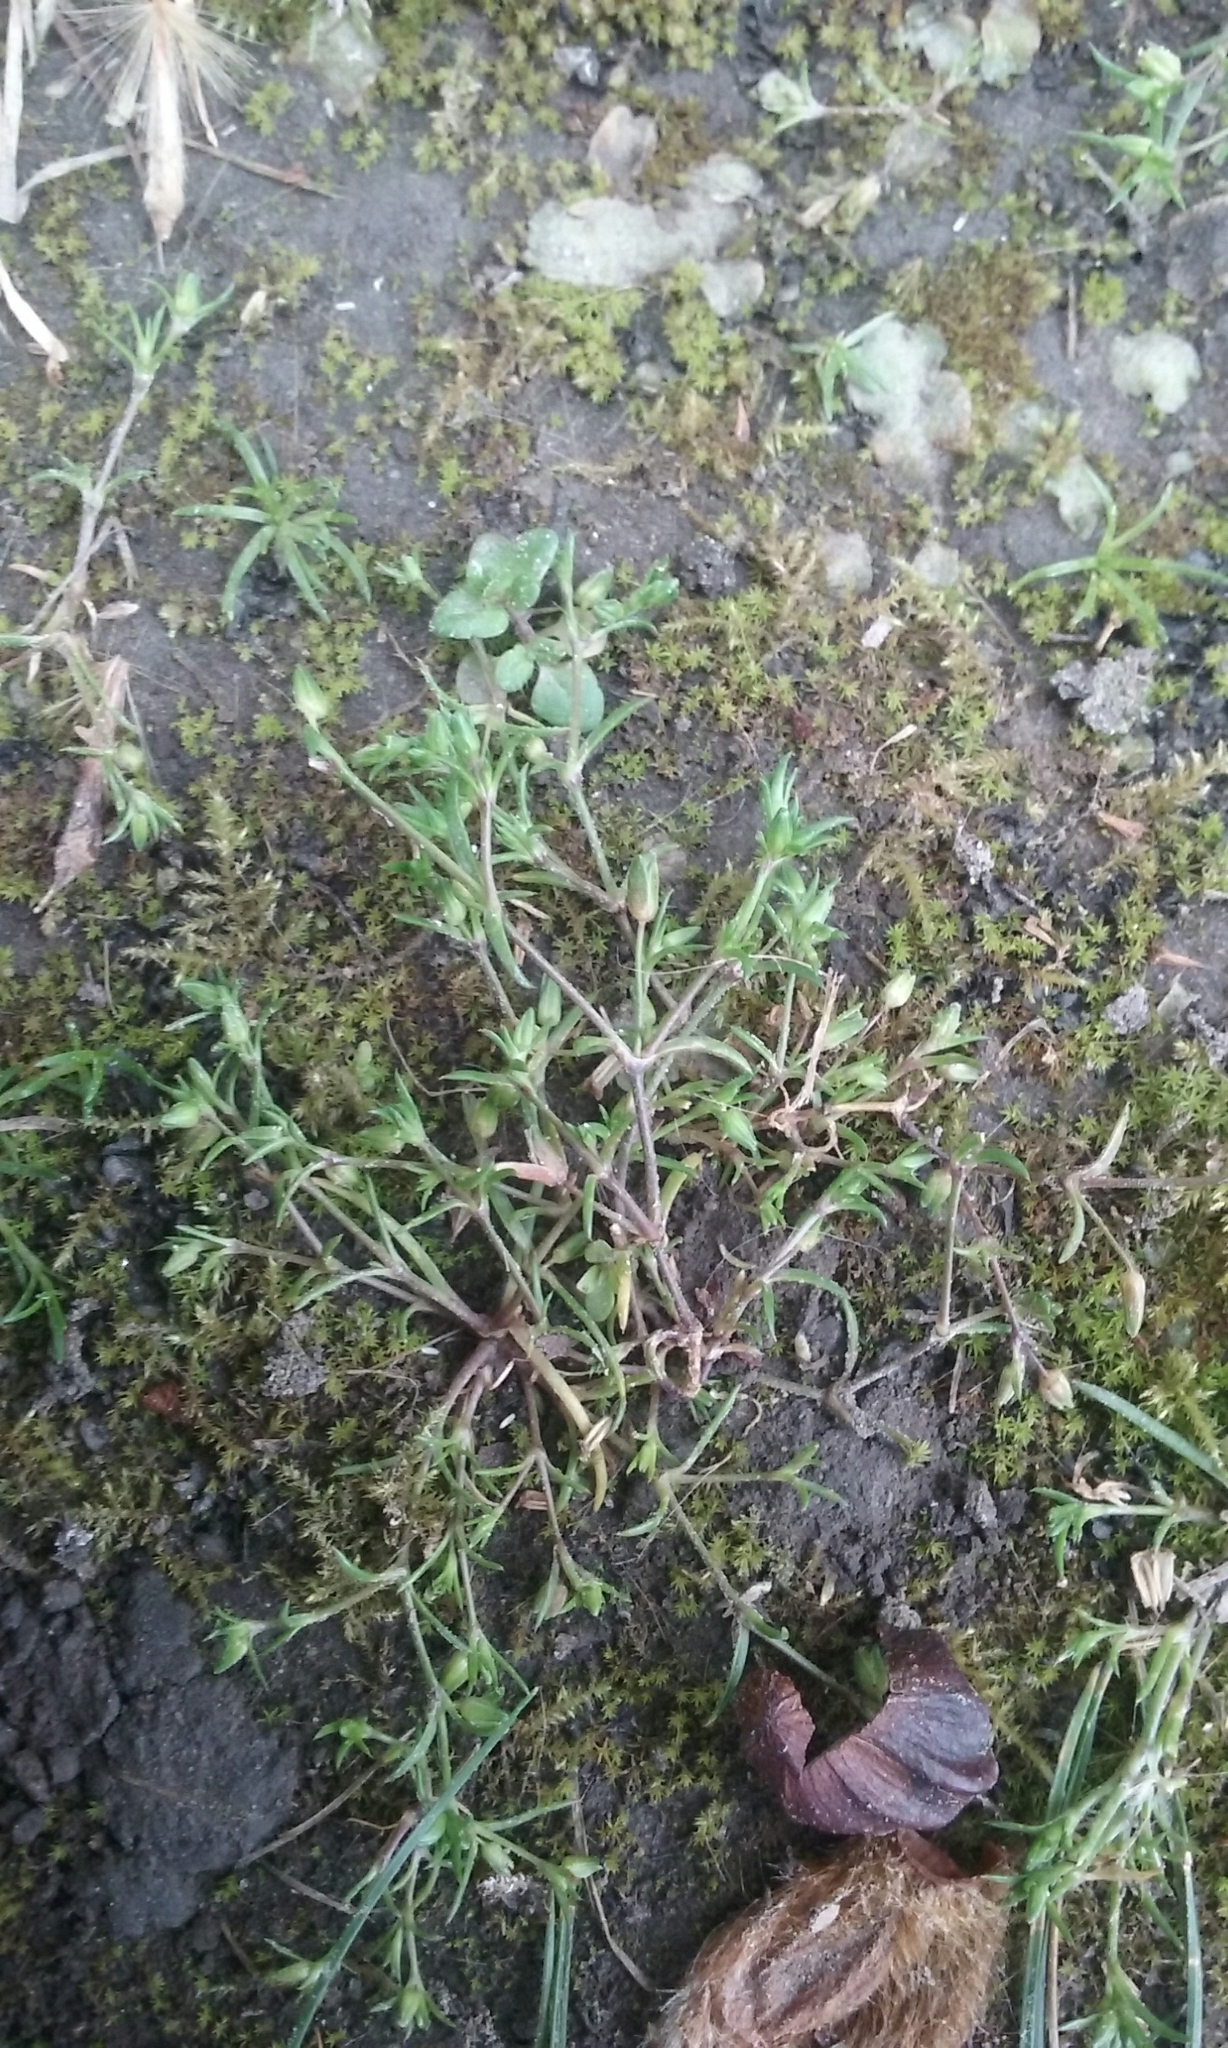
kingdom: Plantae
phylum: Tracheophyta
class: Magnoliopsida
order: Caryophyllales
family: Caryophyllaceae
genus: Sagina
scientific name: Sagina procumbens
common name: Procumbent pearlwort
